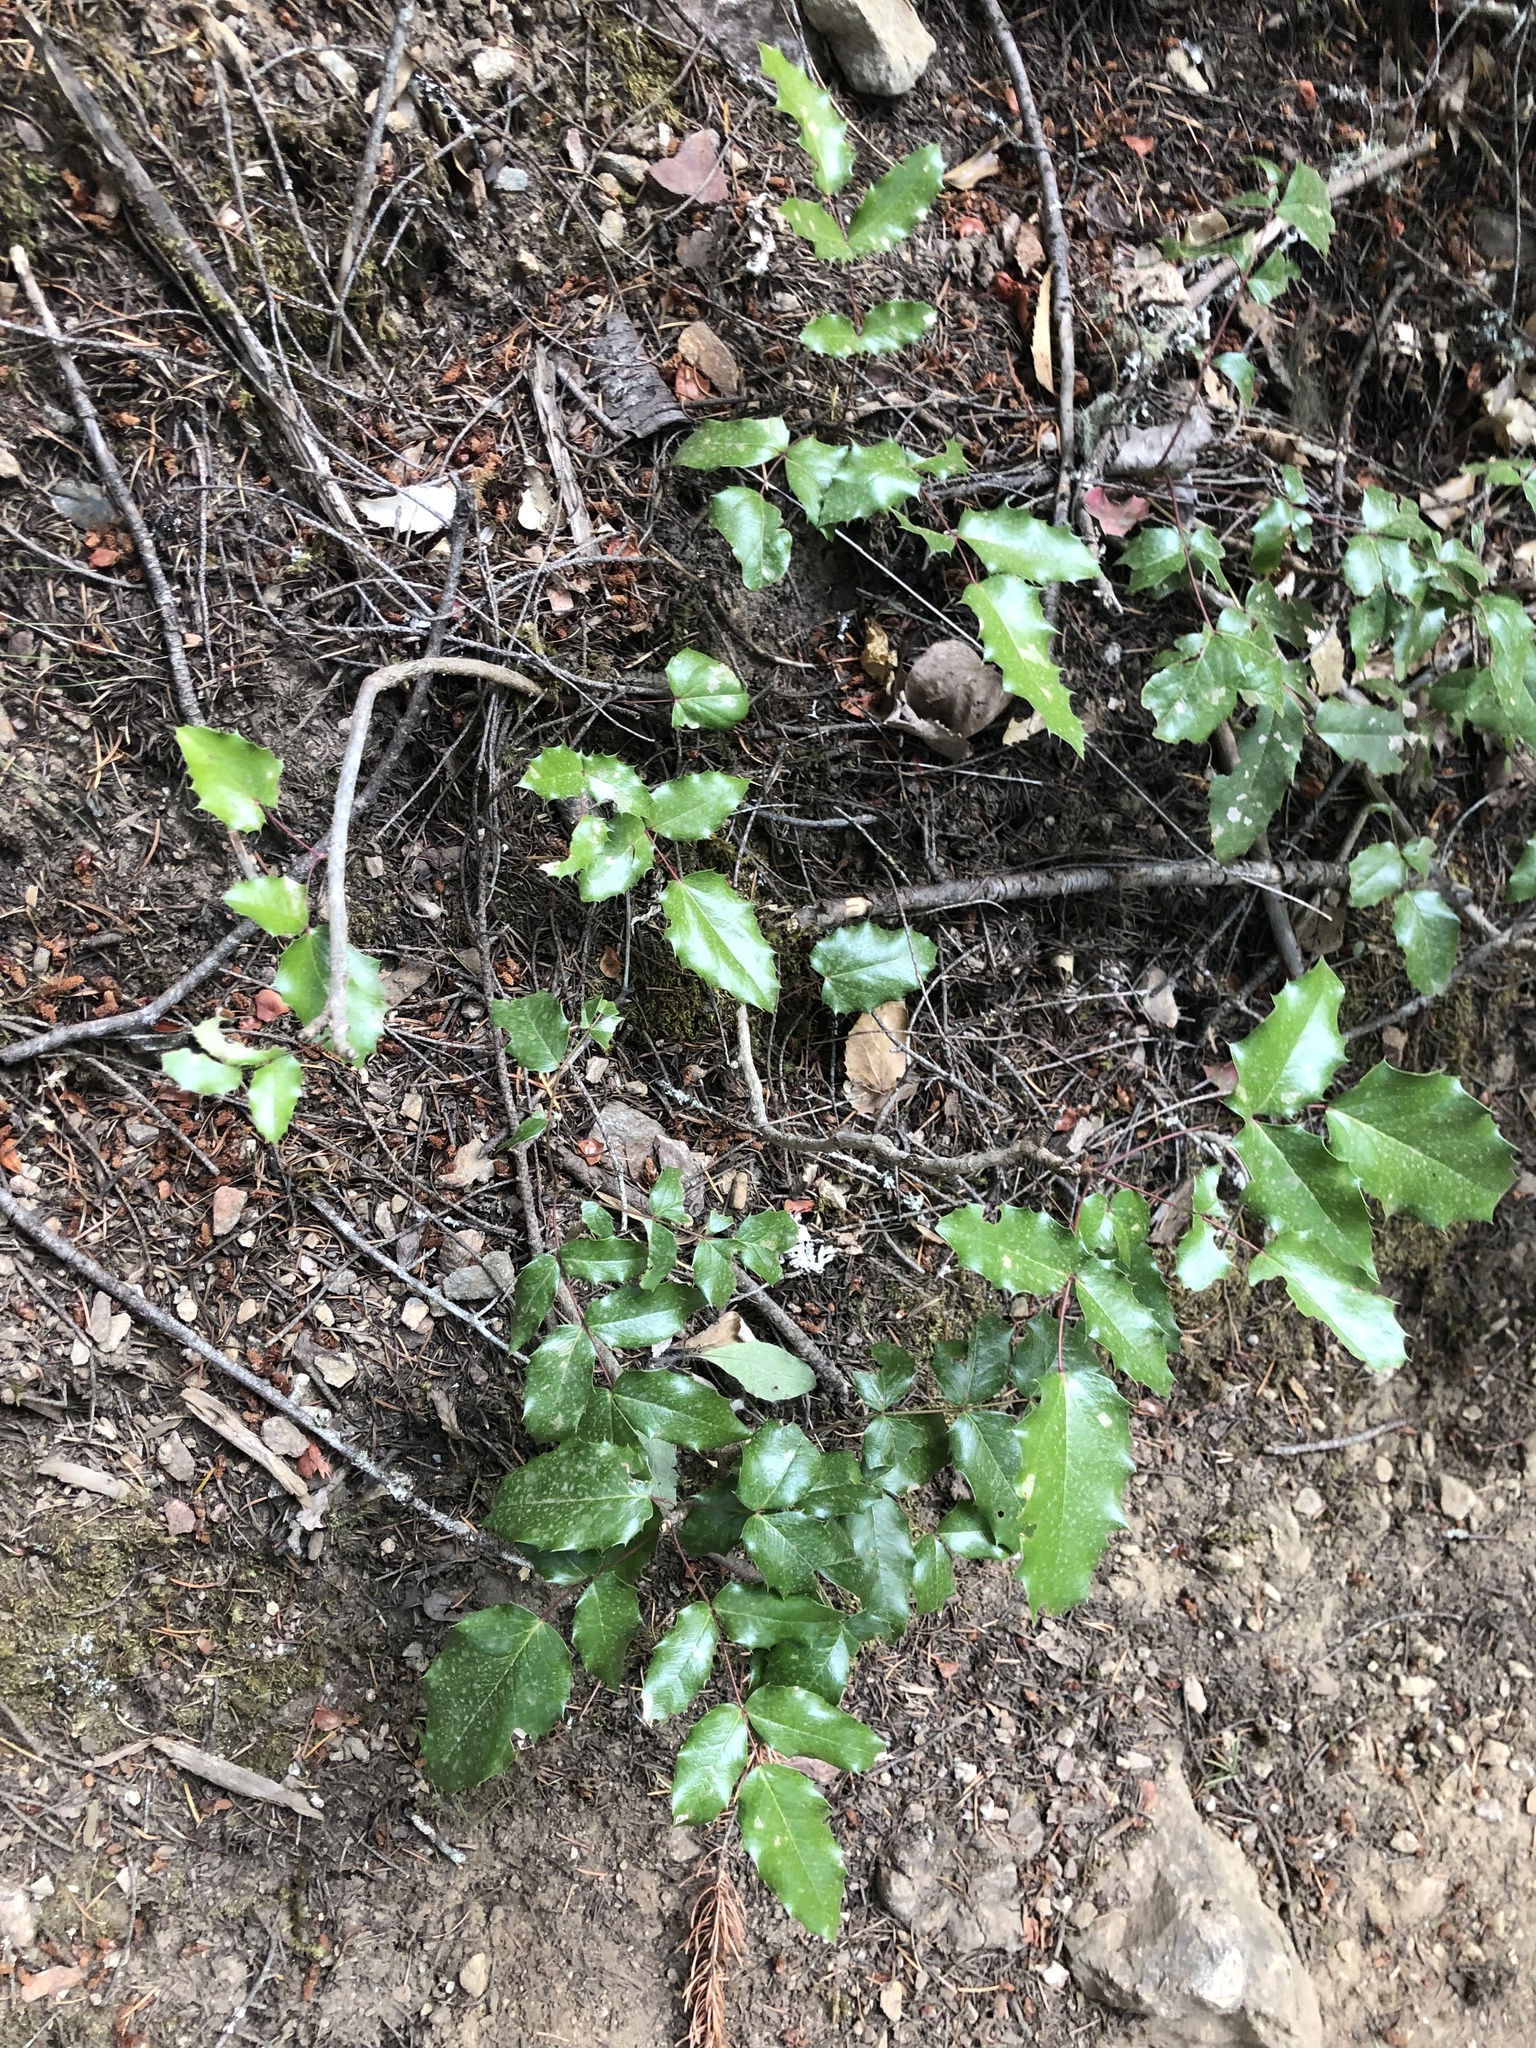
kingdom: Plantae
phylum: Tracheophyta
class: Magnoliopsida
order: Ranunculales
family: Berberidaceae
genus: Mahonia
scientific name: Mahonia aquifolium
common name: Oregon-grape
